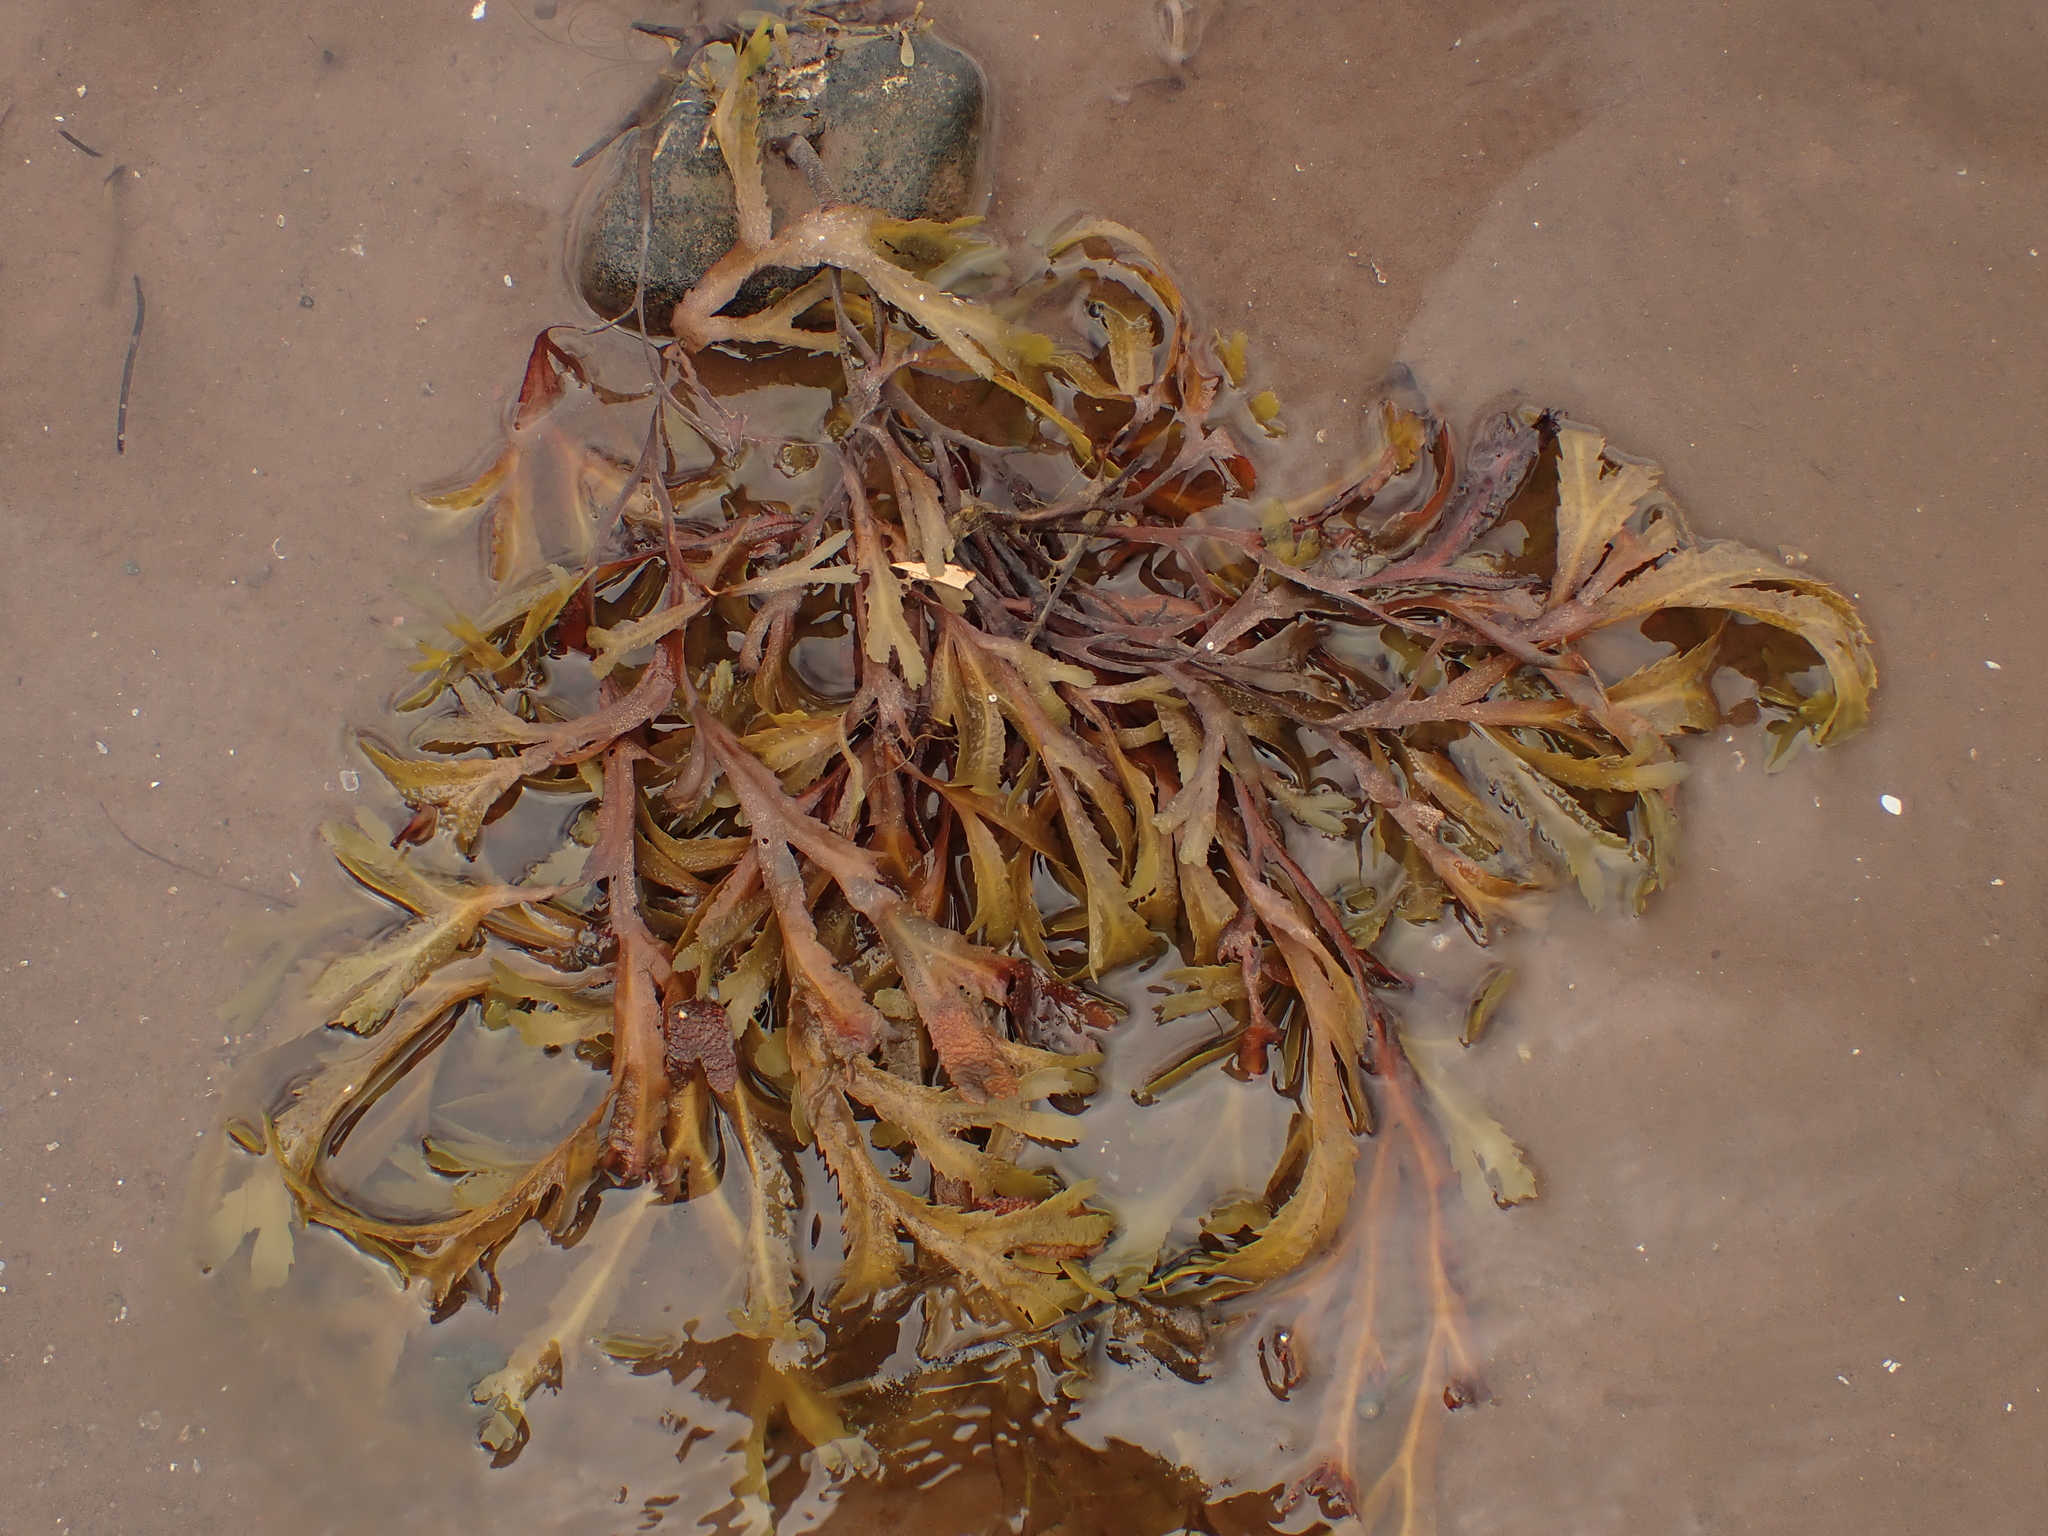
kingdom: Chromista
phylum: Ochrophyta
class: Phaeophyceae
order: Fucales
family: Fucaceae
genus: Fucus
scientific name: Fucus serratus
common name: Toothed wrack
